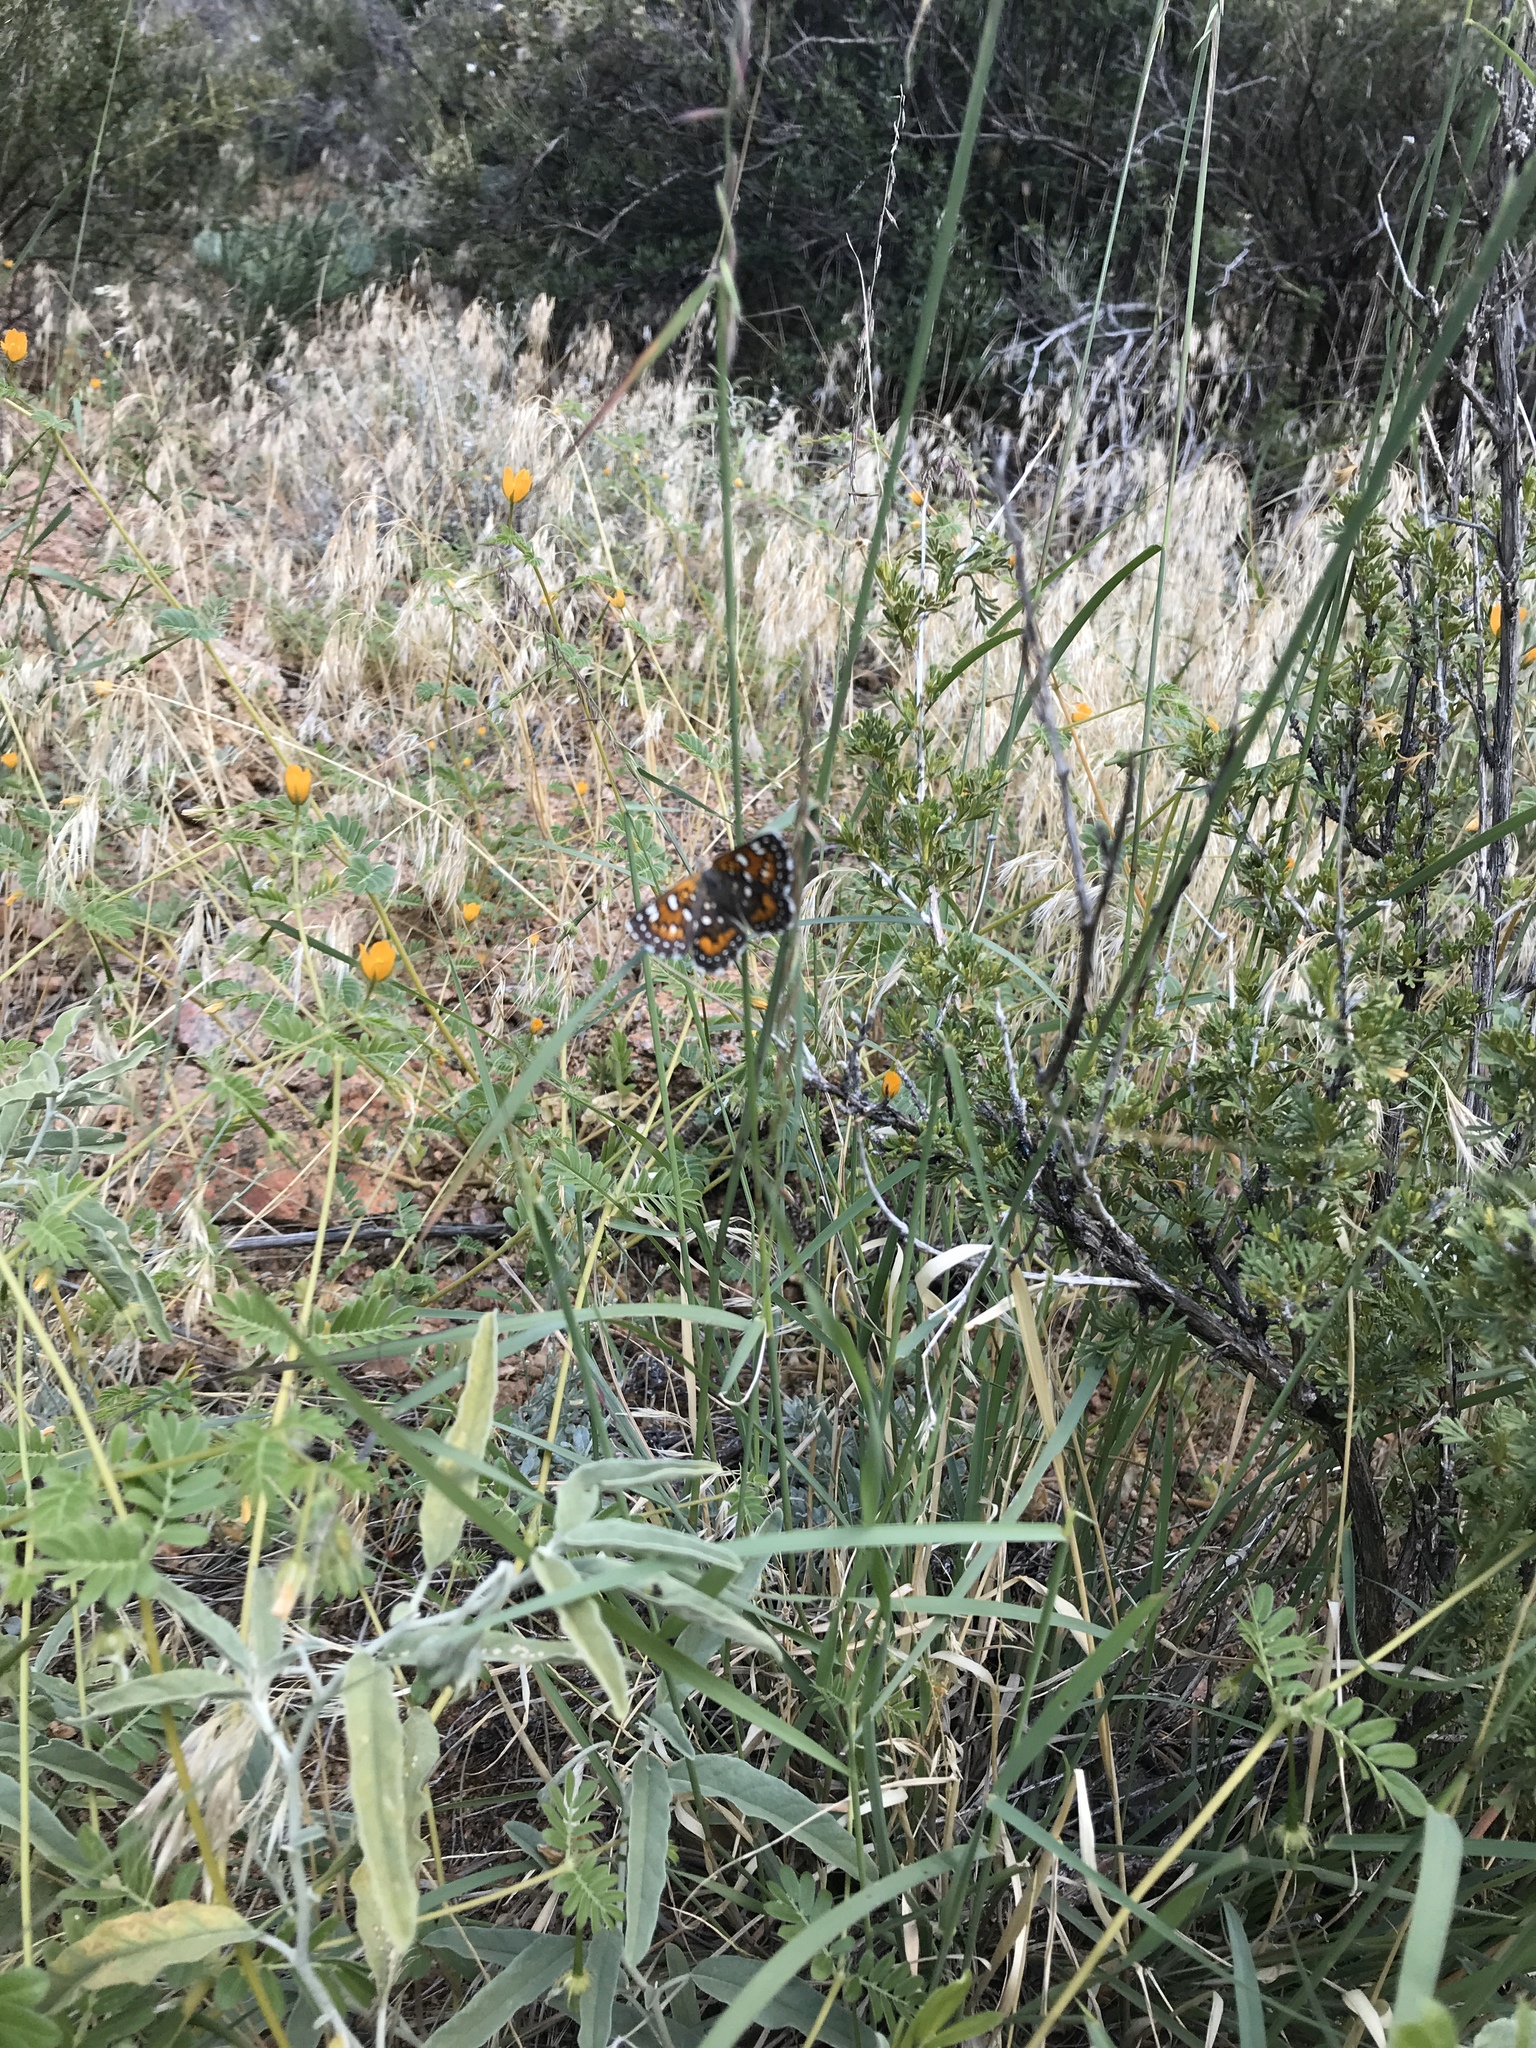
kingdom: Animalia
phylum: Arthropoda
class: Insecta
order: Lepidoptera
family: Riodinidae
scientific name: Riodinidae
